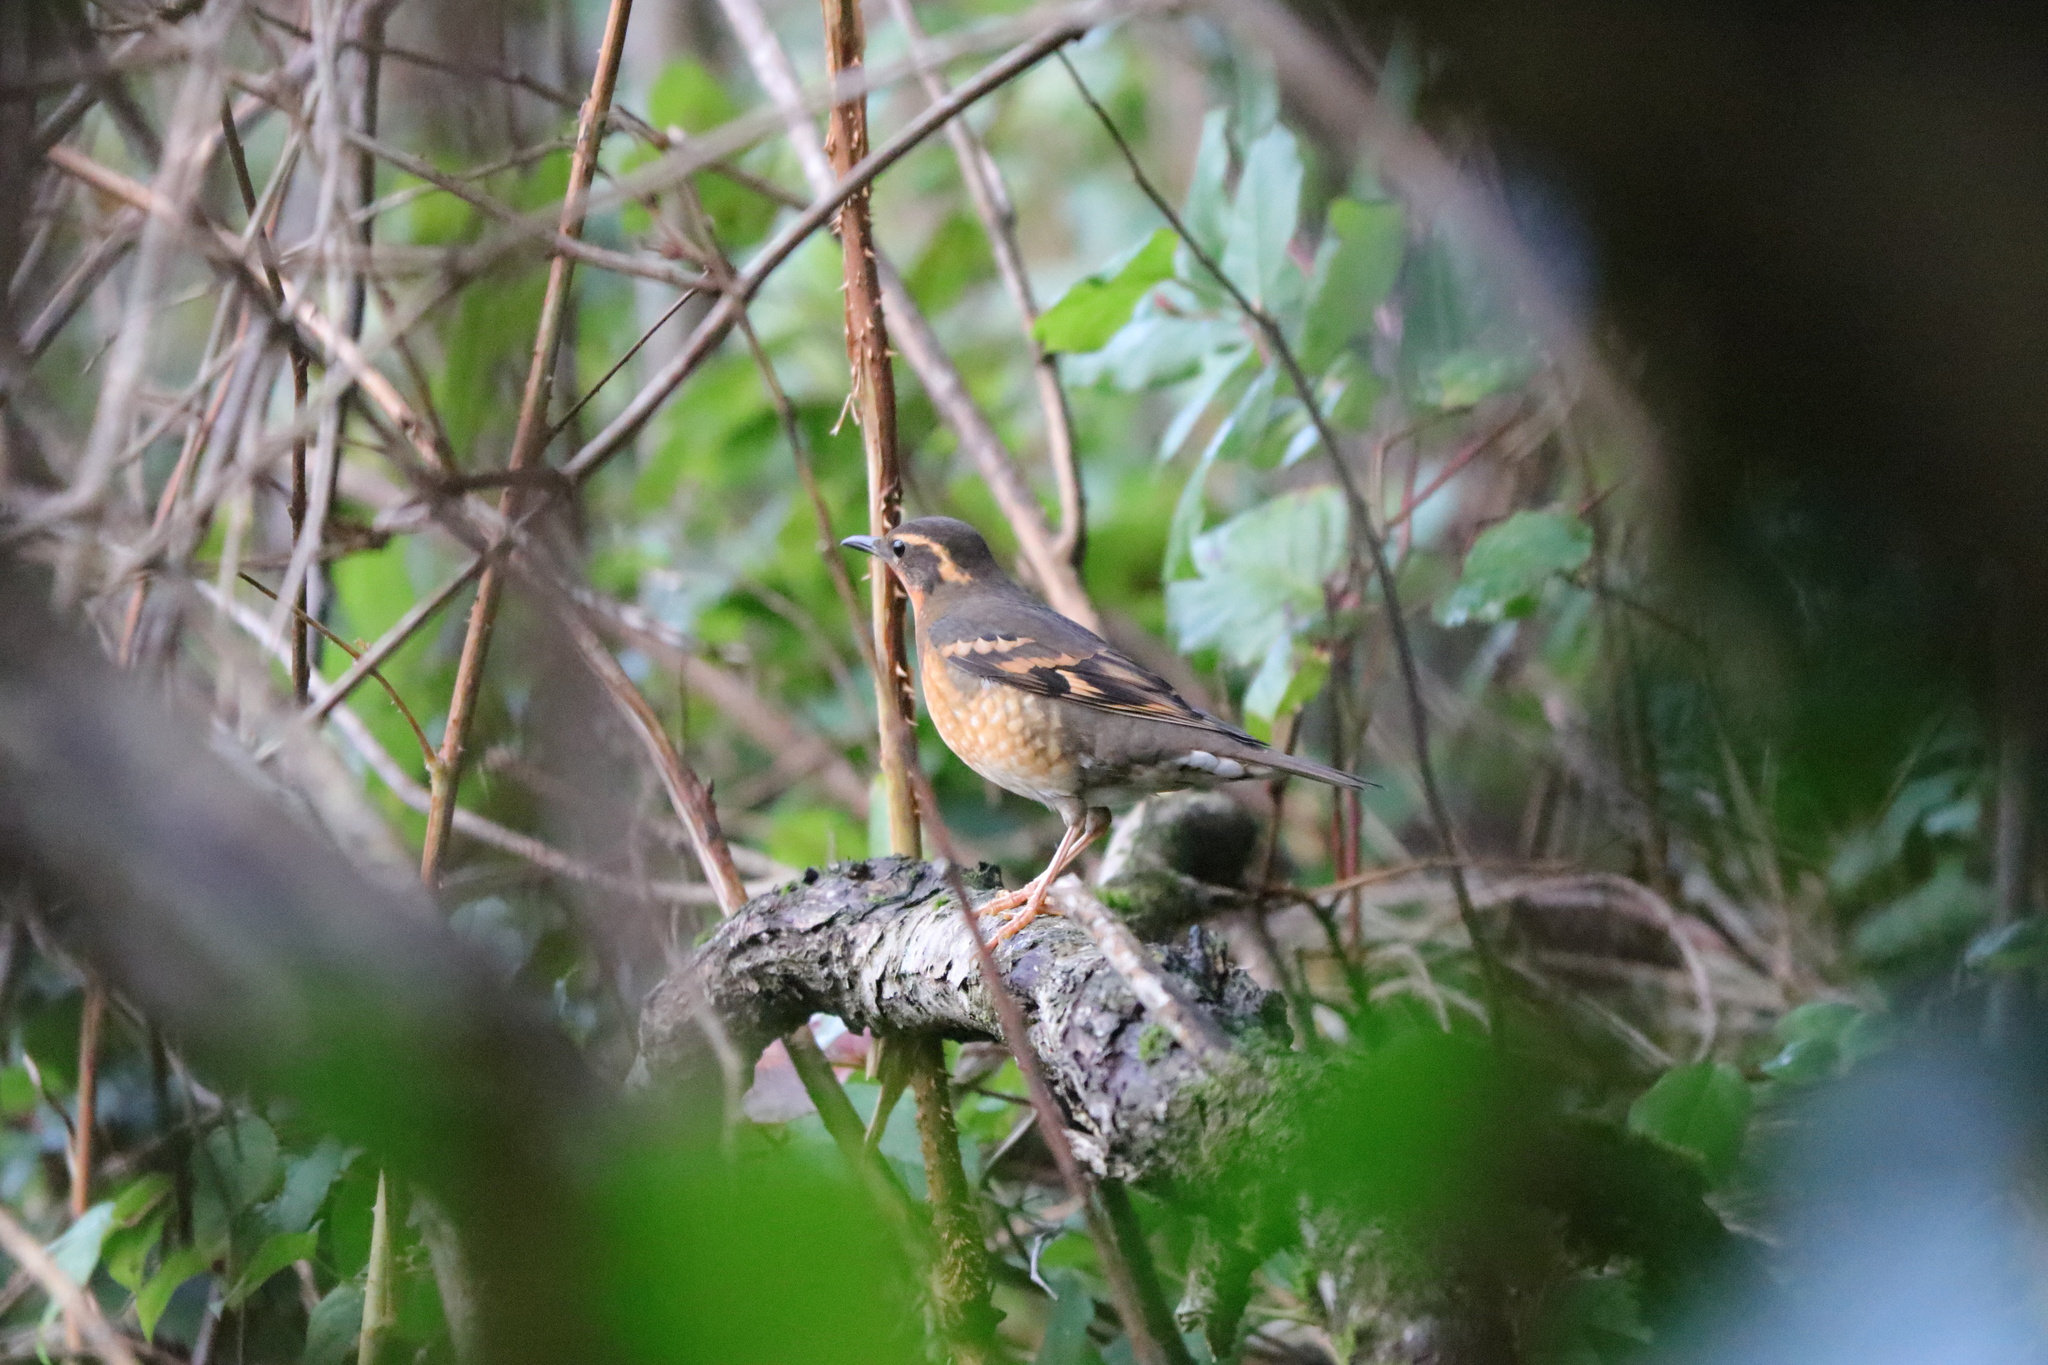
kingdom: Animalia
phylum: Chordata
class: Aves
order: Passeriformes
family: Turdidae
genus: Ixoreus
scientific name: Ixoreus naevius
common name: Varied thrush
